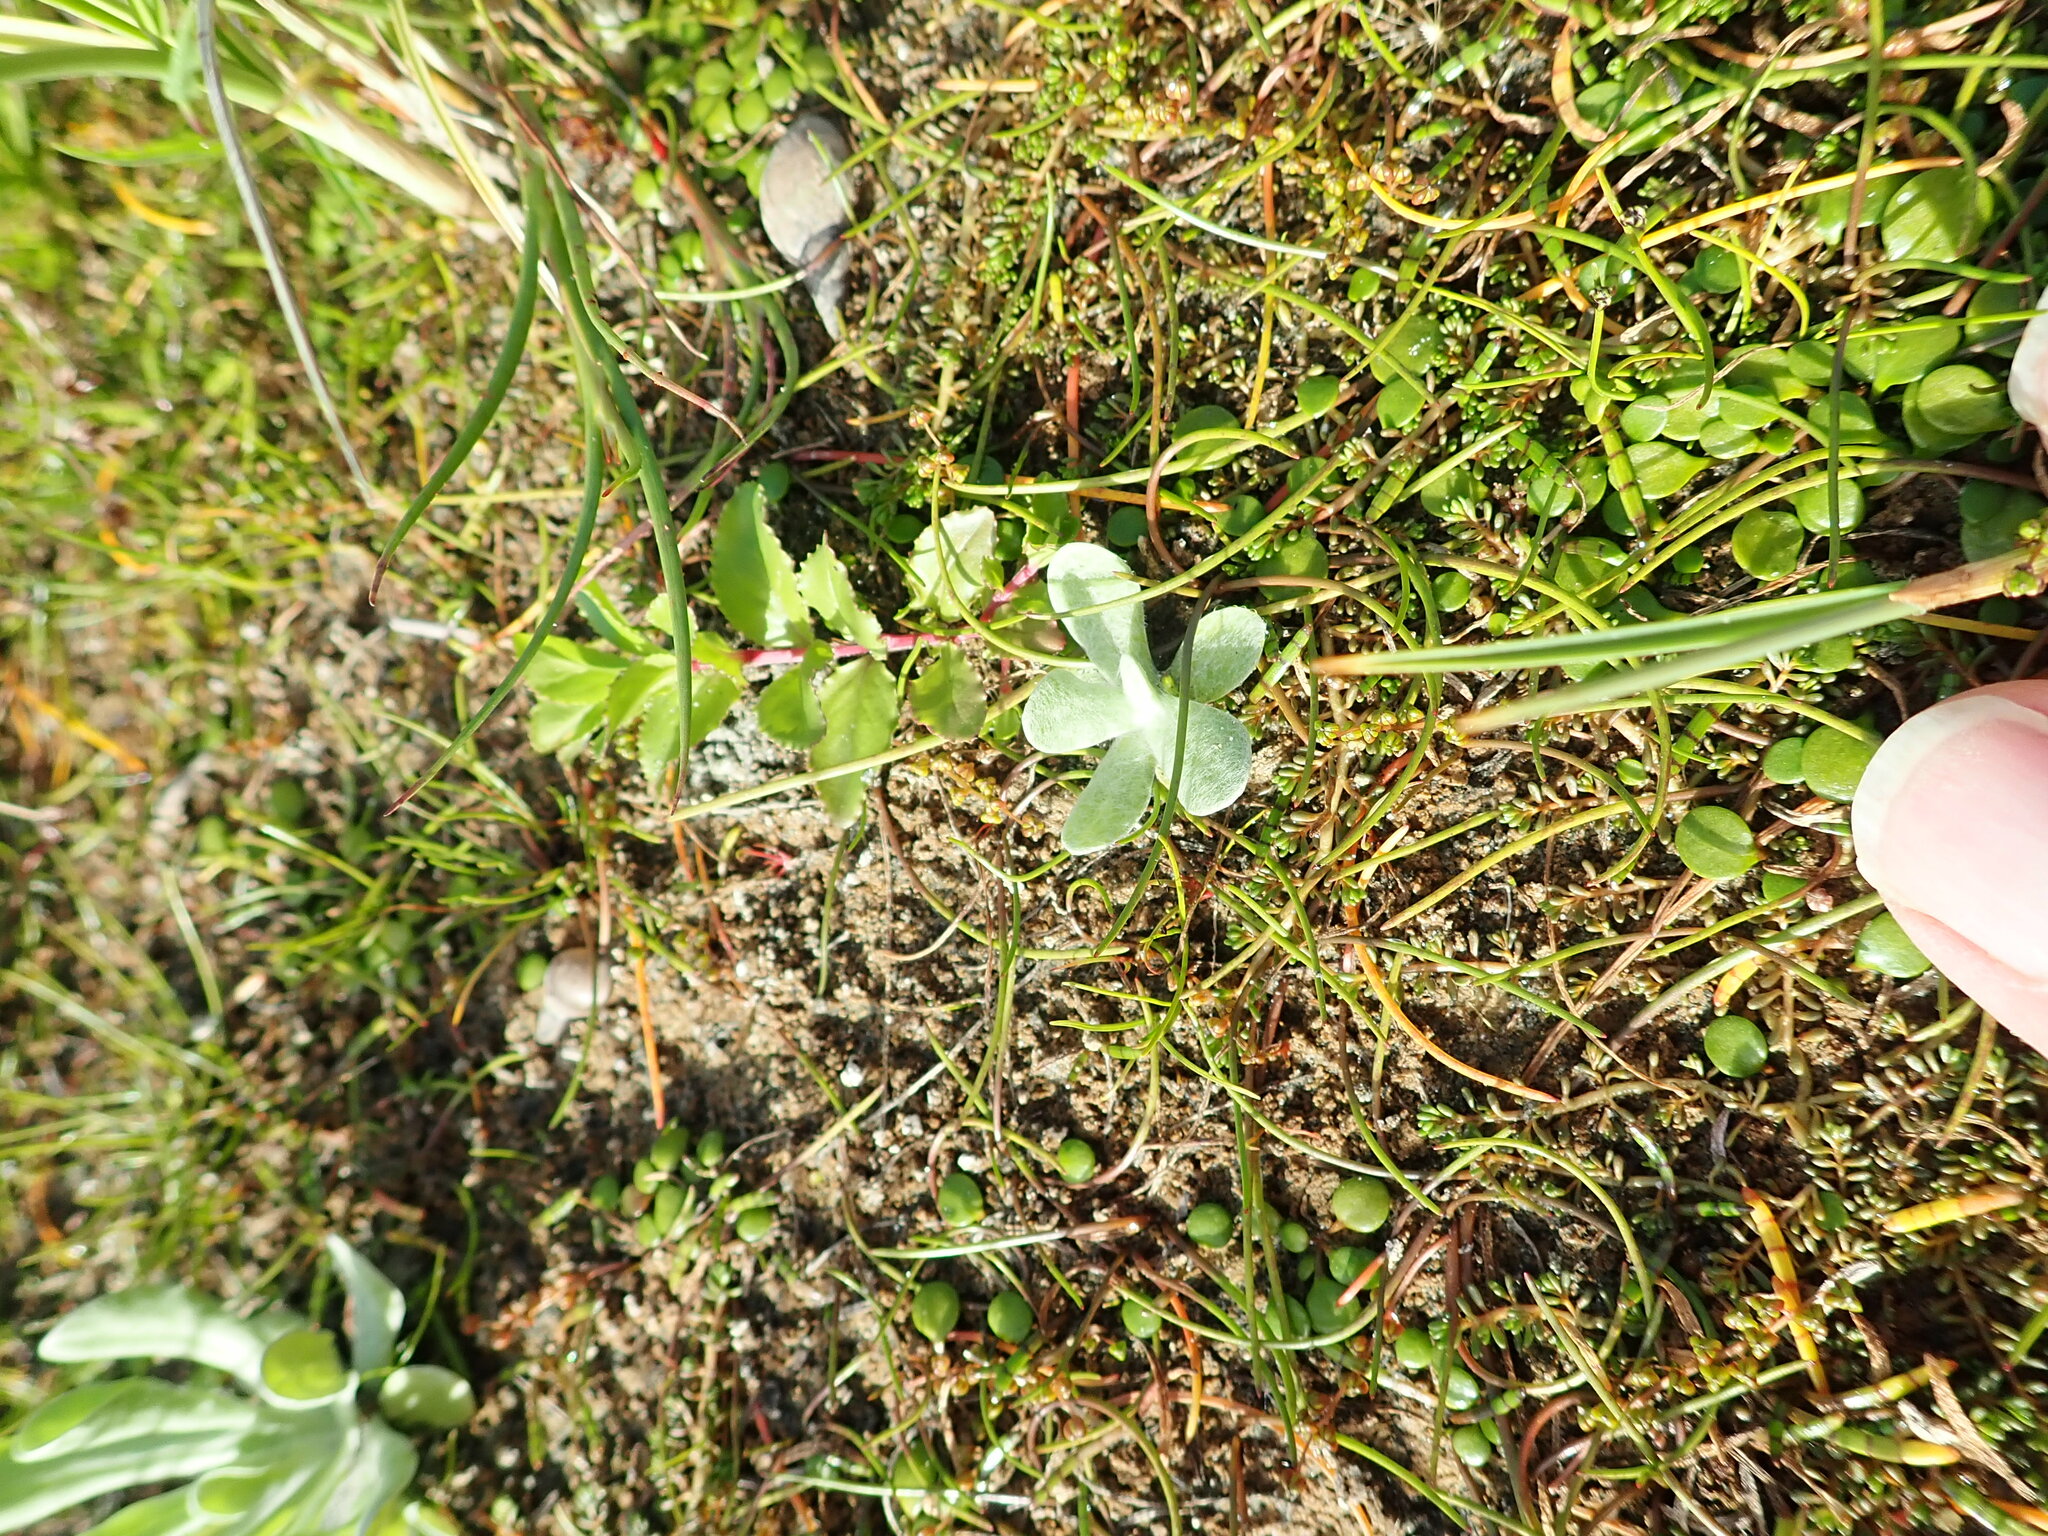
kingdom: Plantae
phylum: Tracheophyta
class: Magnoliopsida
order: Myrtales
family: Onagraceae
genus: Epilobium
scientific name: Epilobium billardiereanum
